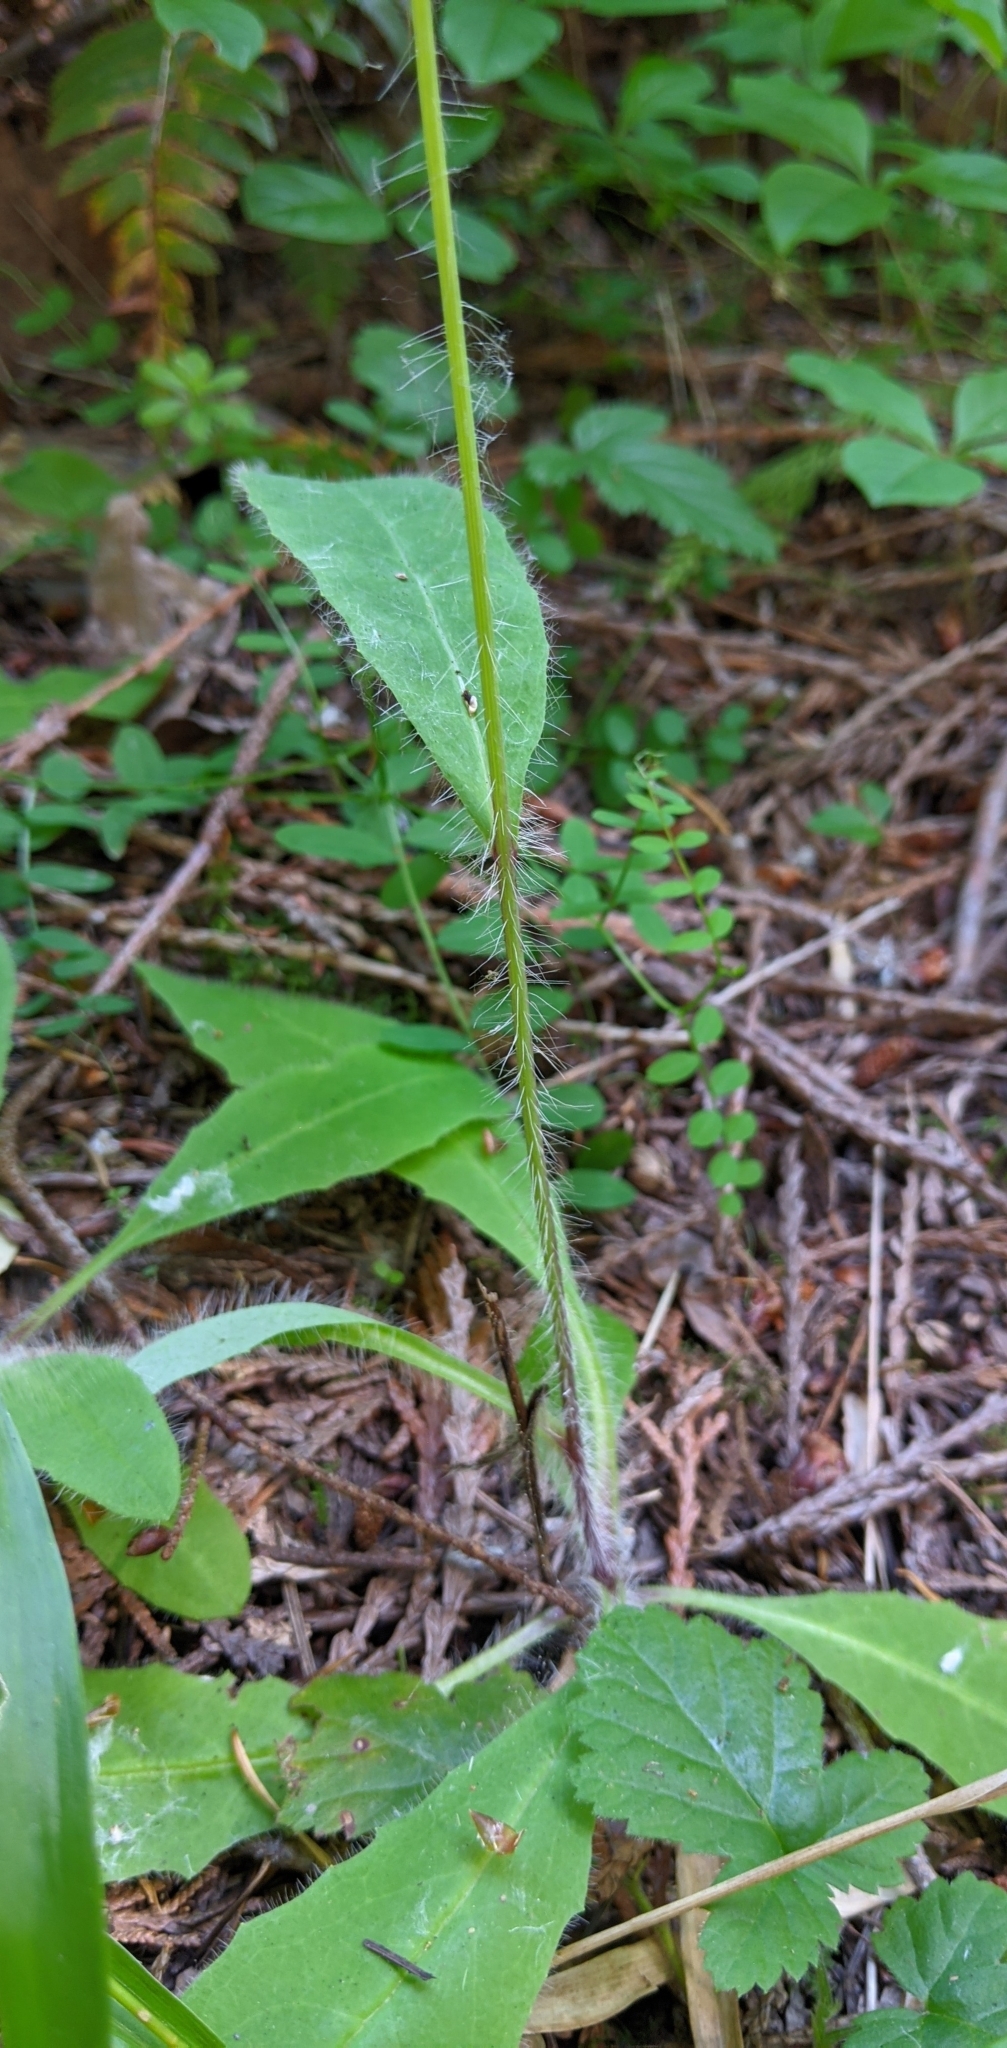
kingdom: Plantae
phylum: Tracheophyta
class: Magnoliopsida
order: Asterales
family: Asteraceae
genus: Hieracium
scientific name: Hieracium albiflorum
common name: White hawkweed
